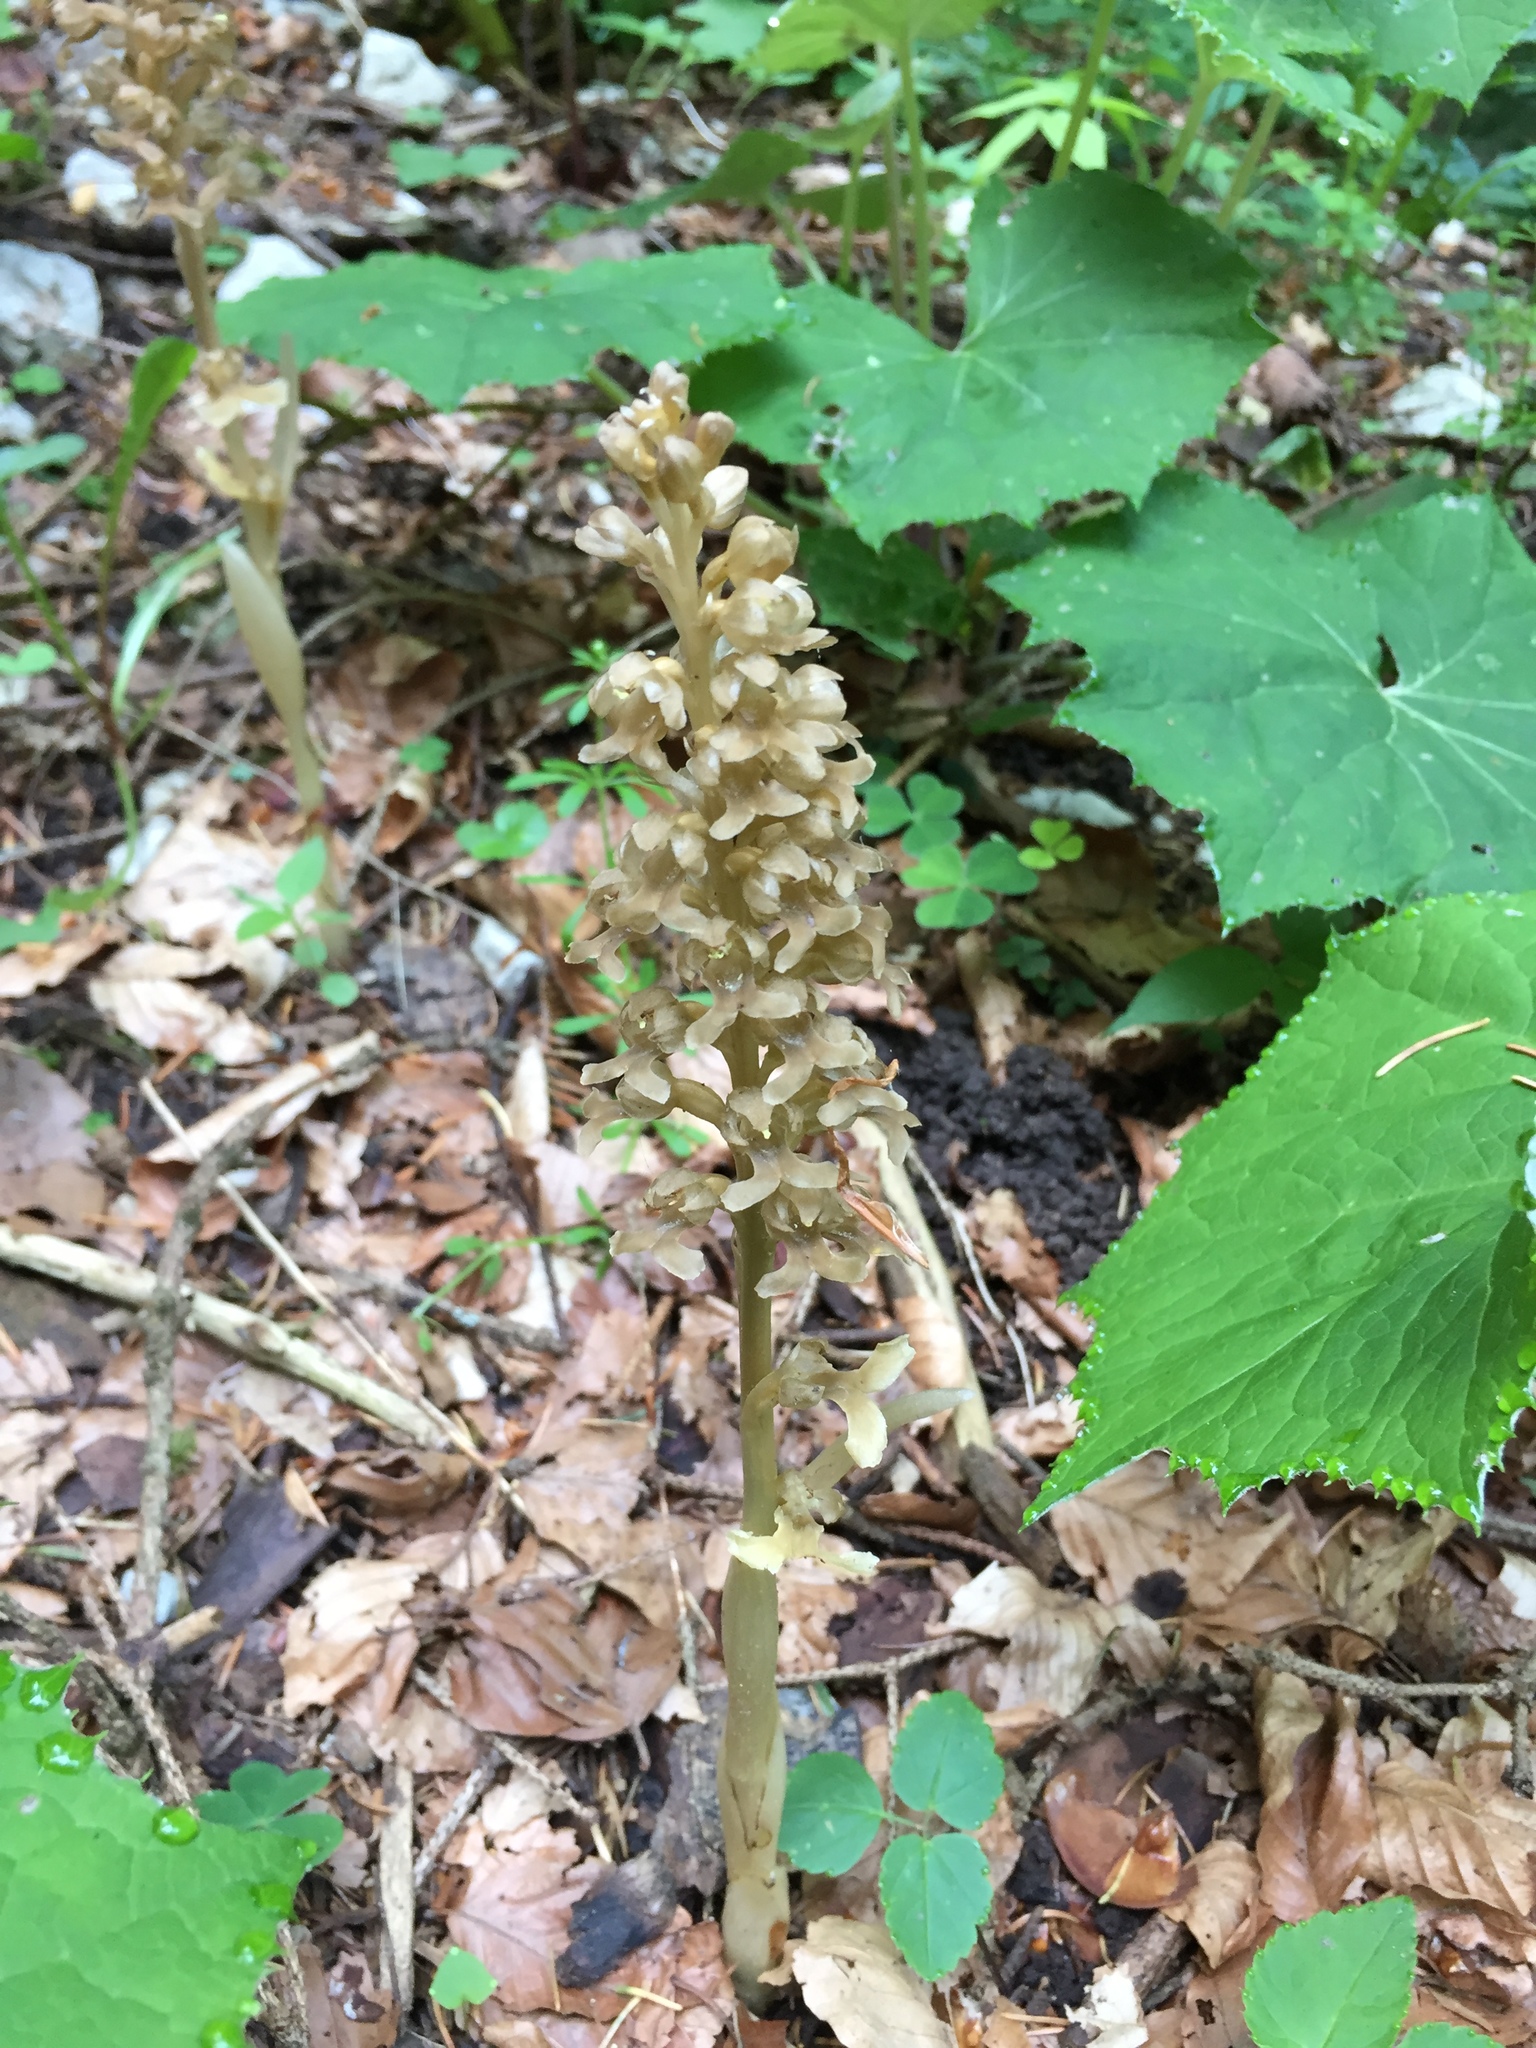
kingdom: Plantae
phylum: Tracheophyta
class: Liliopsida
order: Asparagales
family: Orchidaceae
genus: Neottia
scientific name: Neottia nidus-avis
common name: Bird's-nest orchid
